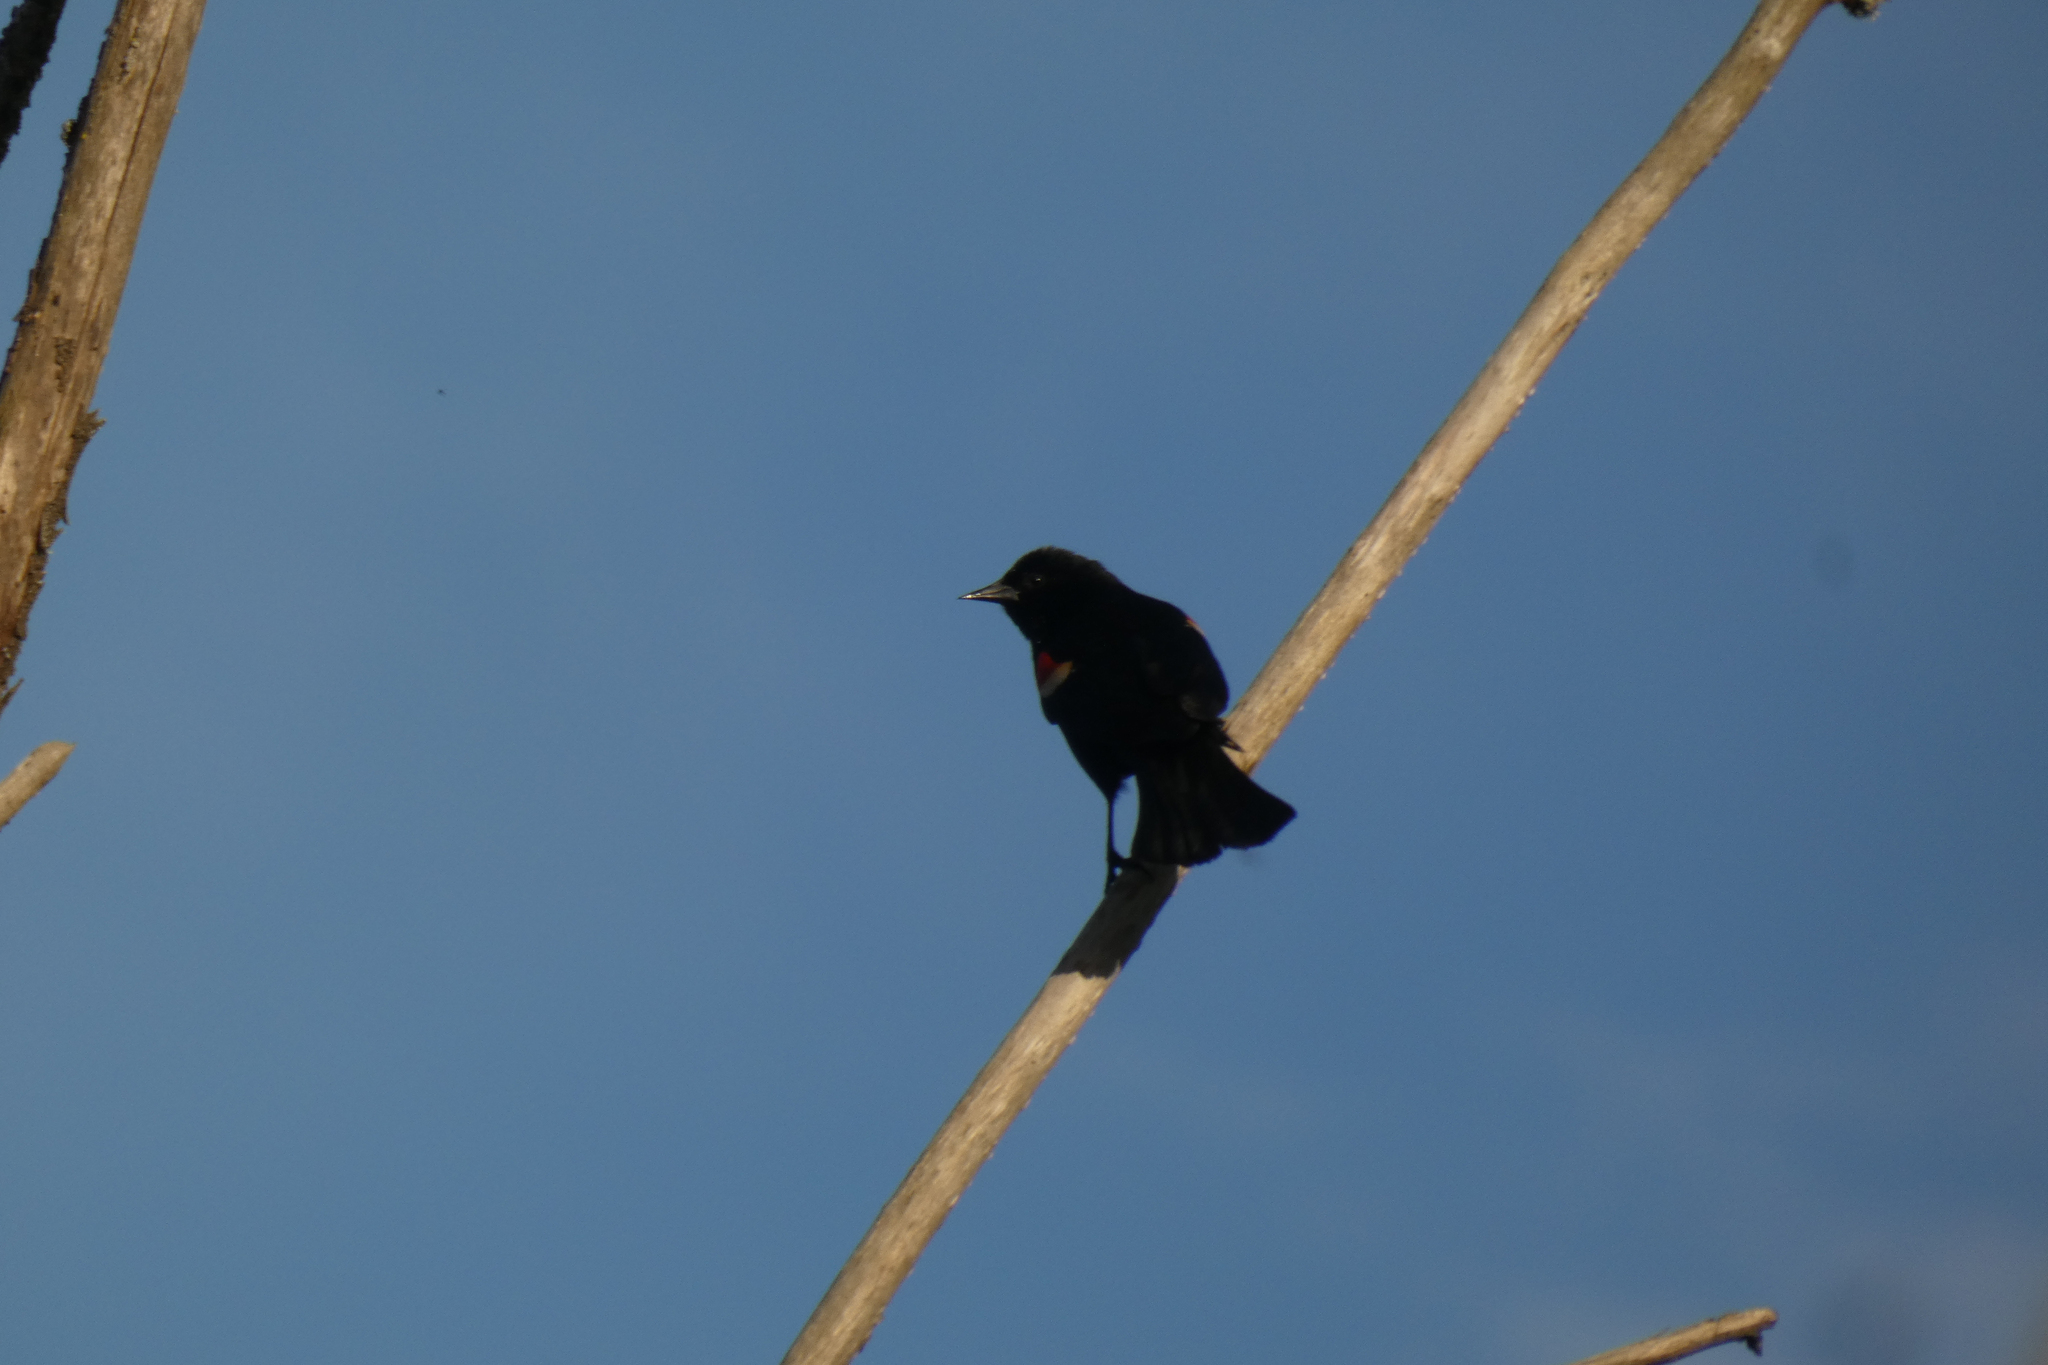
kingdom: Animalia
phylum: Chordata
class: Aves
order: Passeriformes
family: Icteridae
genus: Agelaius
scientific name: Agelaius phoeniceus
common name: Red-winged blackbird
